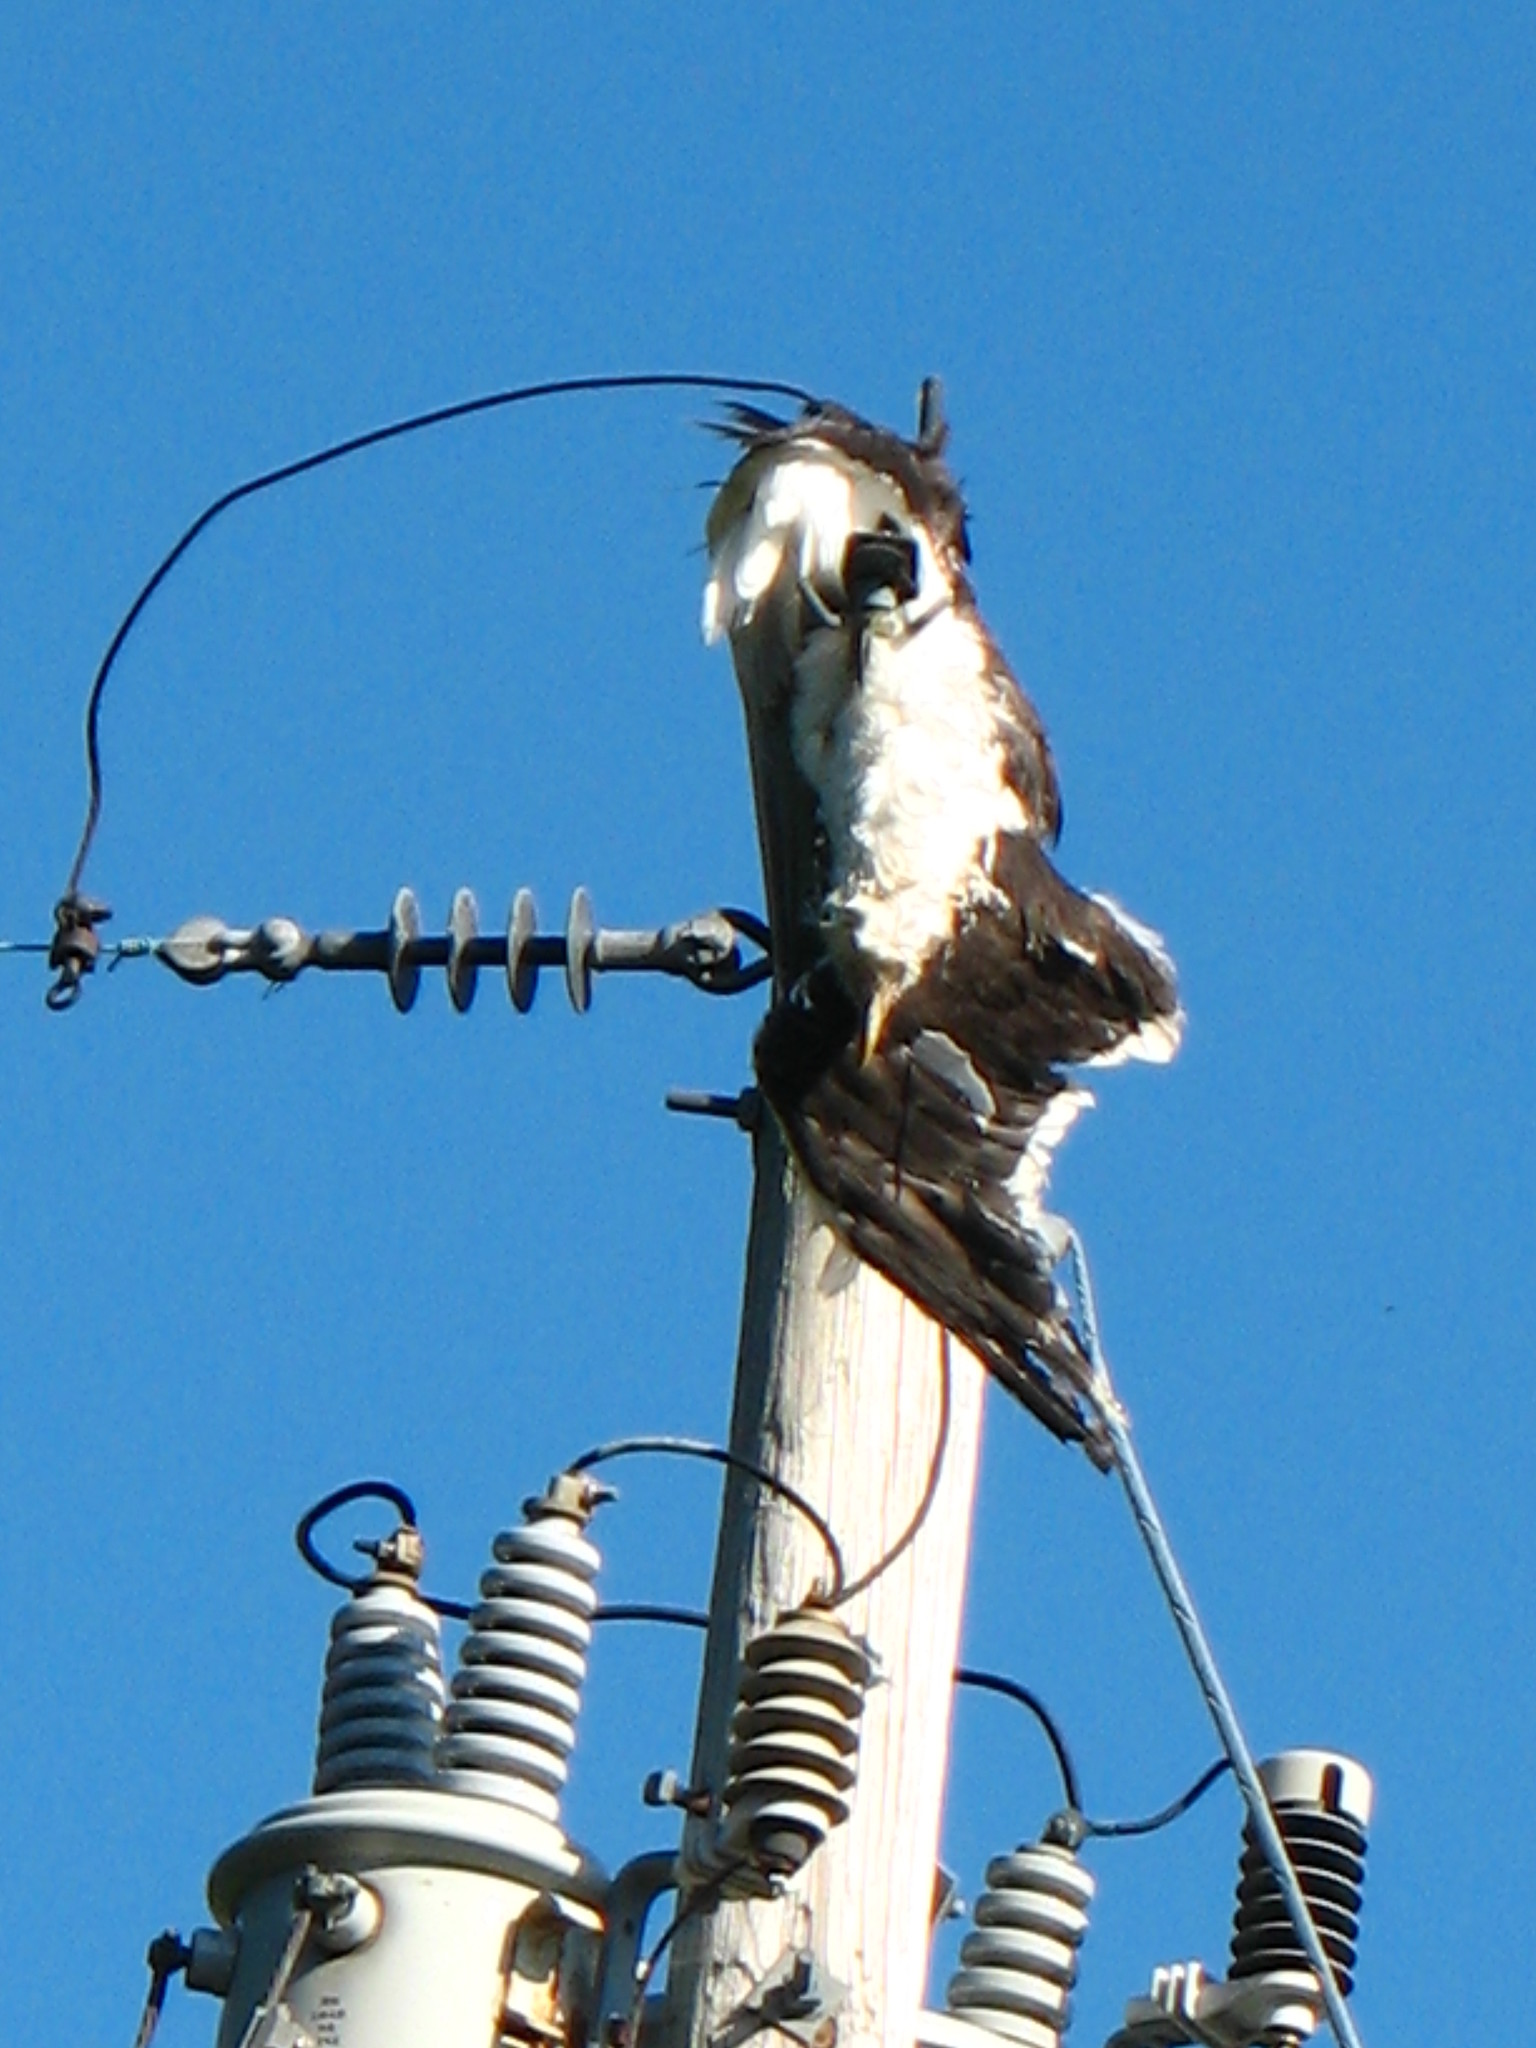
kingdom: Animalia
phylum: Chordata
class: Aves
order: Charadriiformes
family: Laridae
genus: Larus
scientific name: Larus marinus
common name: Great black-backed gull
